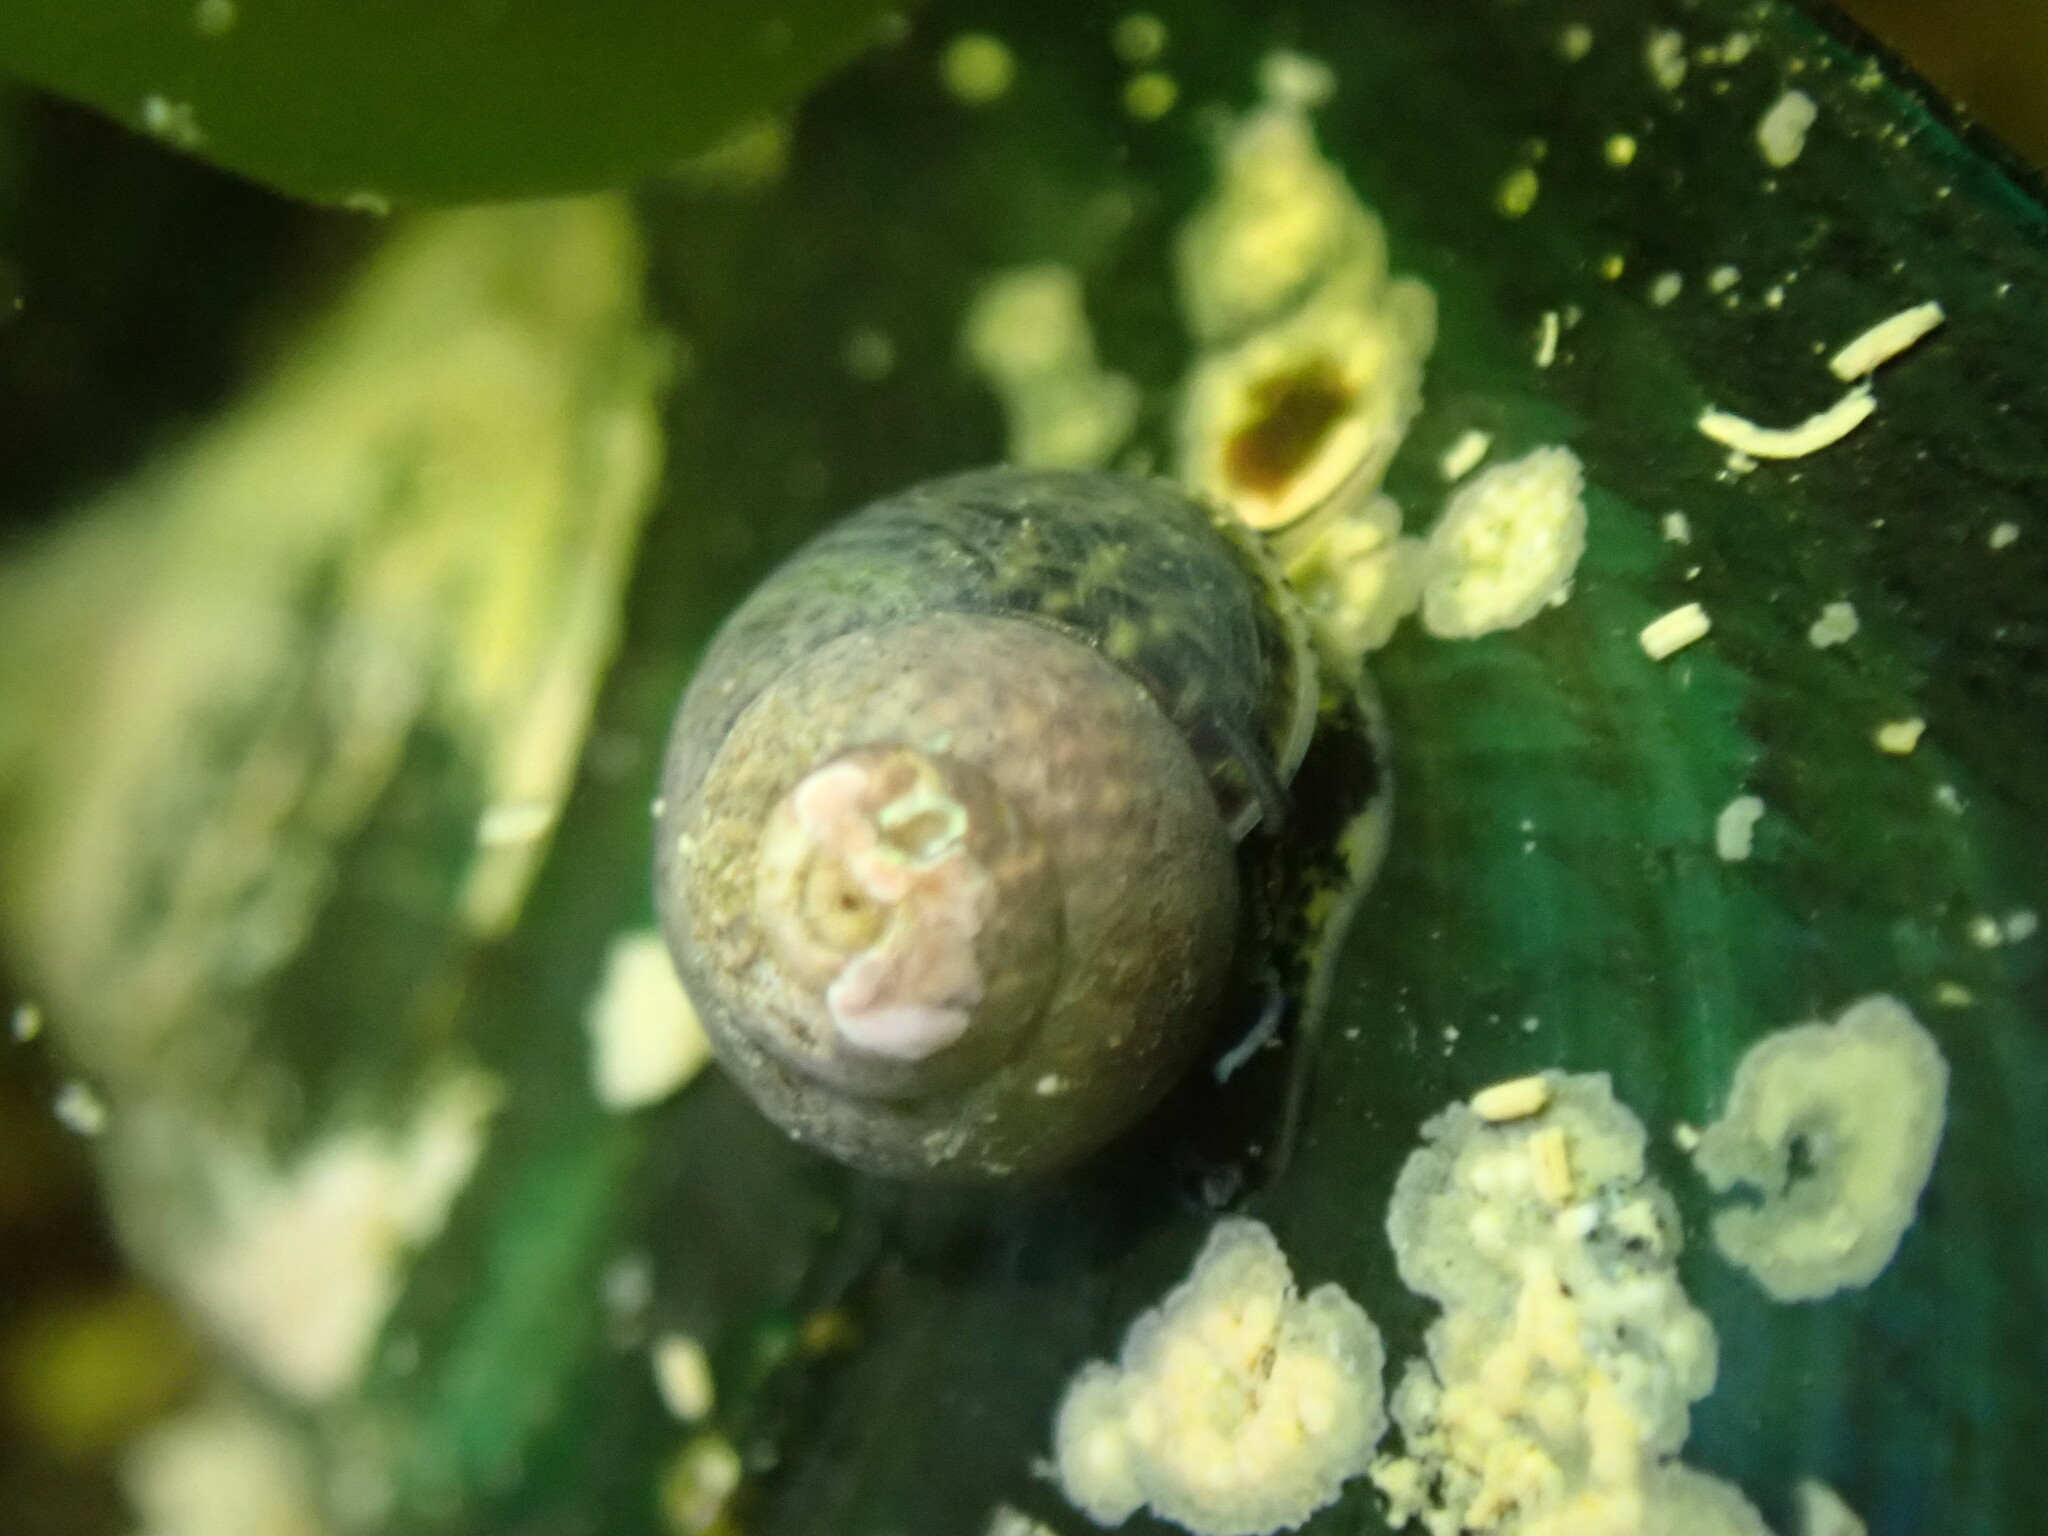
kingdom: Animalia
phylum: Mollusca
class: Gastropoda
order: Trochida
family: Trochidae
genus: Micrelenchus
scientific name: Micrelenchus tessellatus
